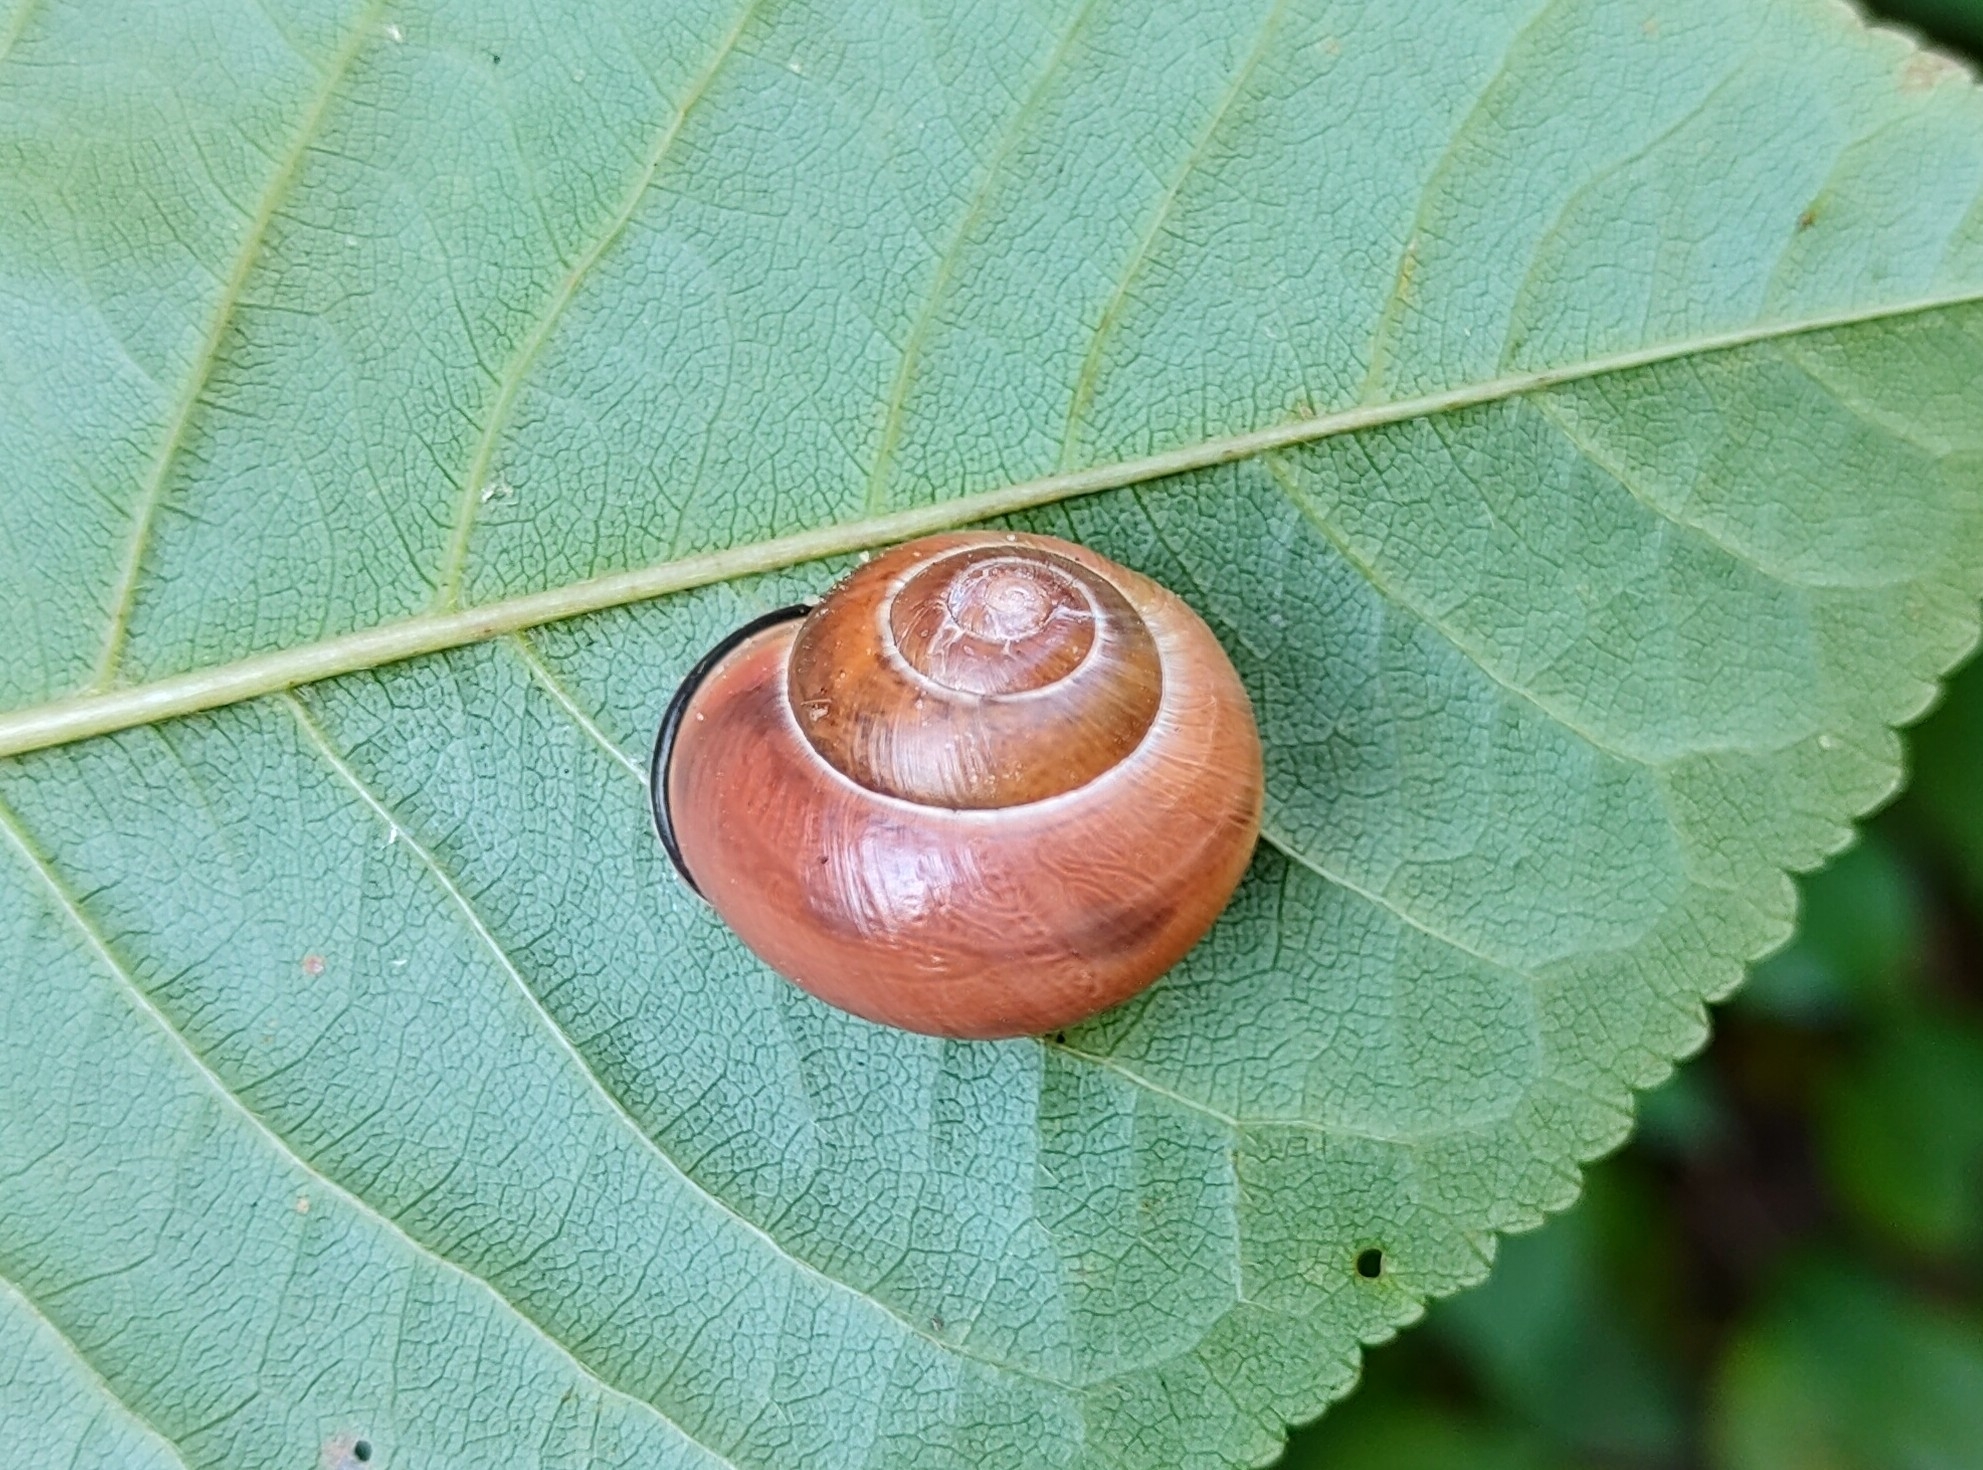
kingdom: Animalia
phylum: Mollusca
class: Gastropoda
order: Stylommatophora
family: Helicidae
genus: Cepaea
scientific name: Cepaea nemoralis
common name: Grovesnail
